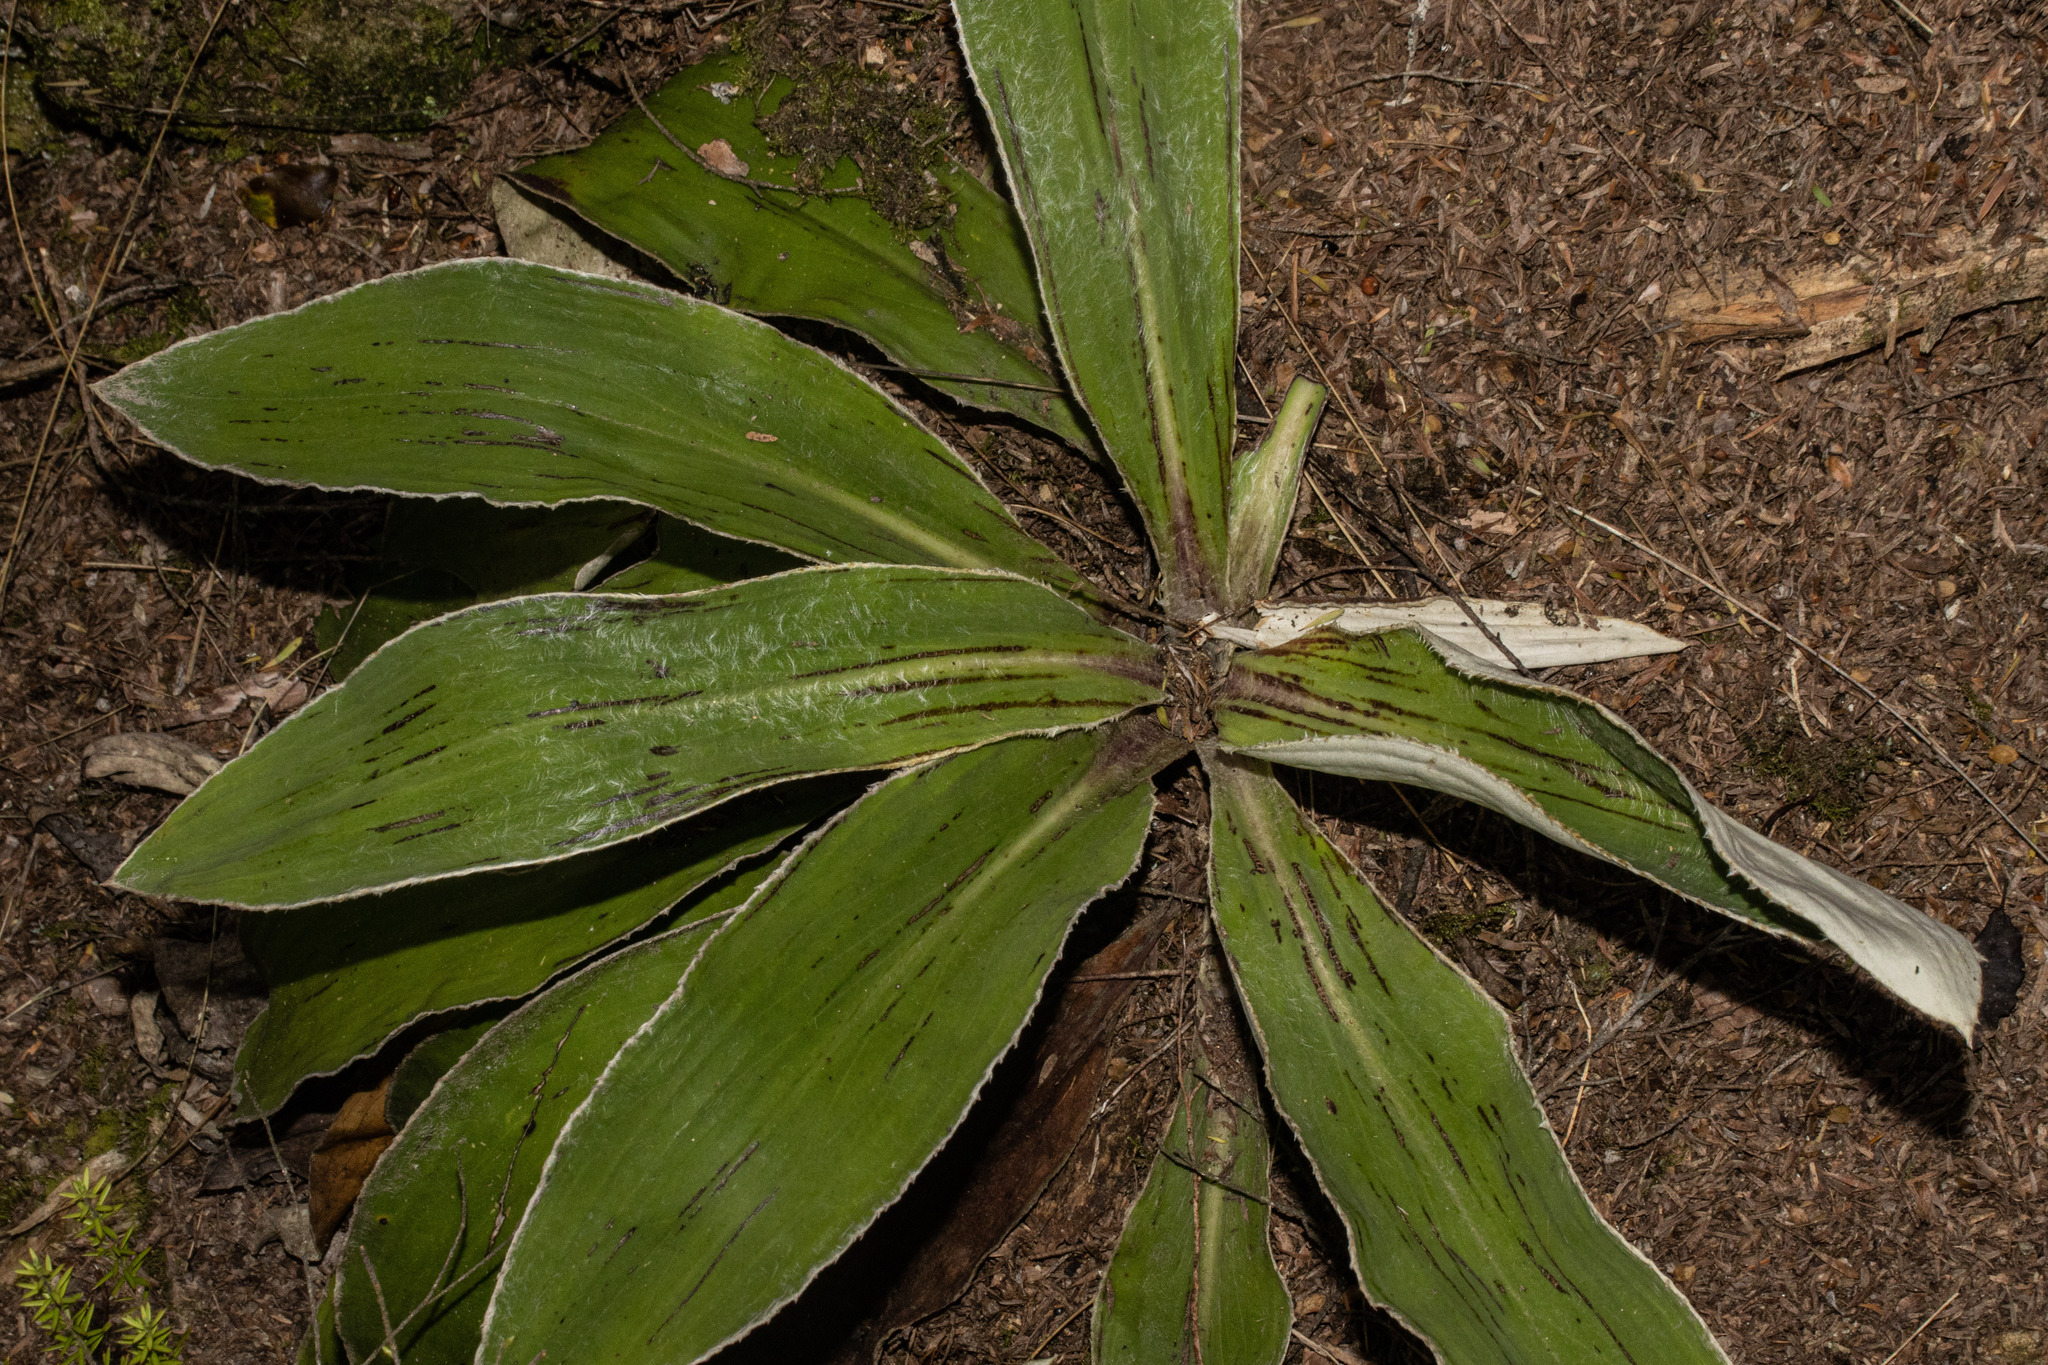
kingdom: Plantae
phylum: Tracheophyta
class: Magnoliopsida
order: Asterales
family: Asteraceae
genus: Celmisia
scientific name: Celmisia hookeri
